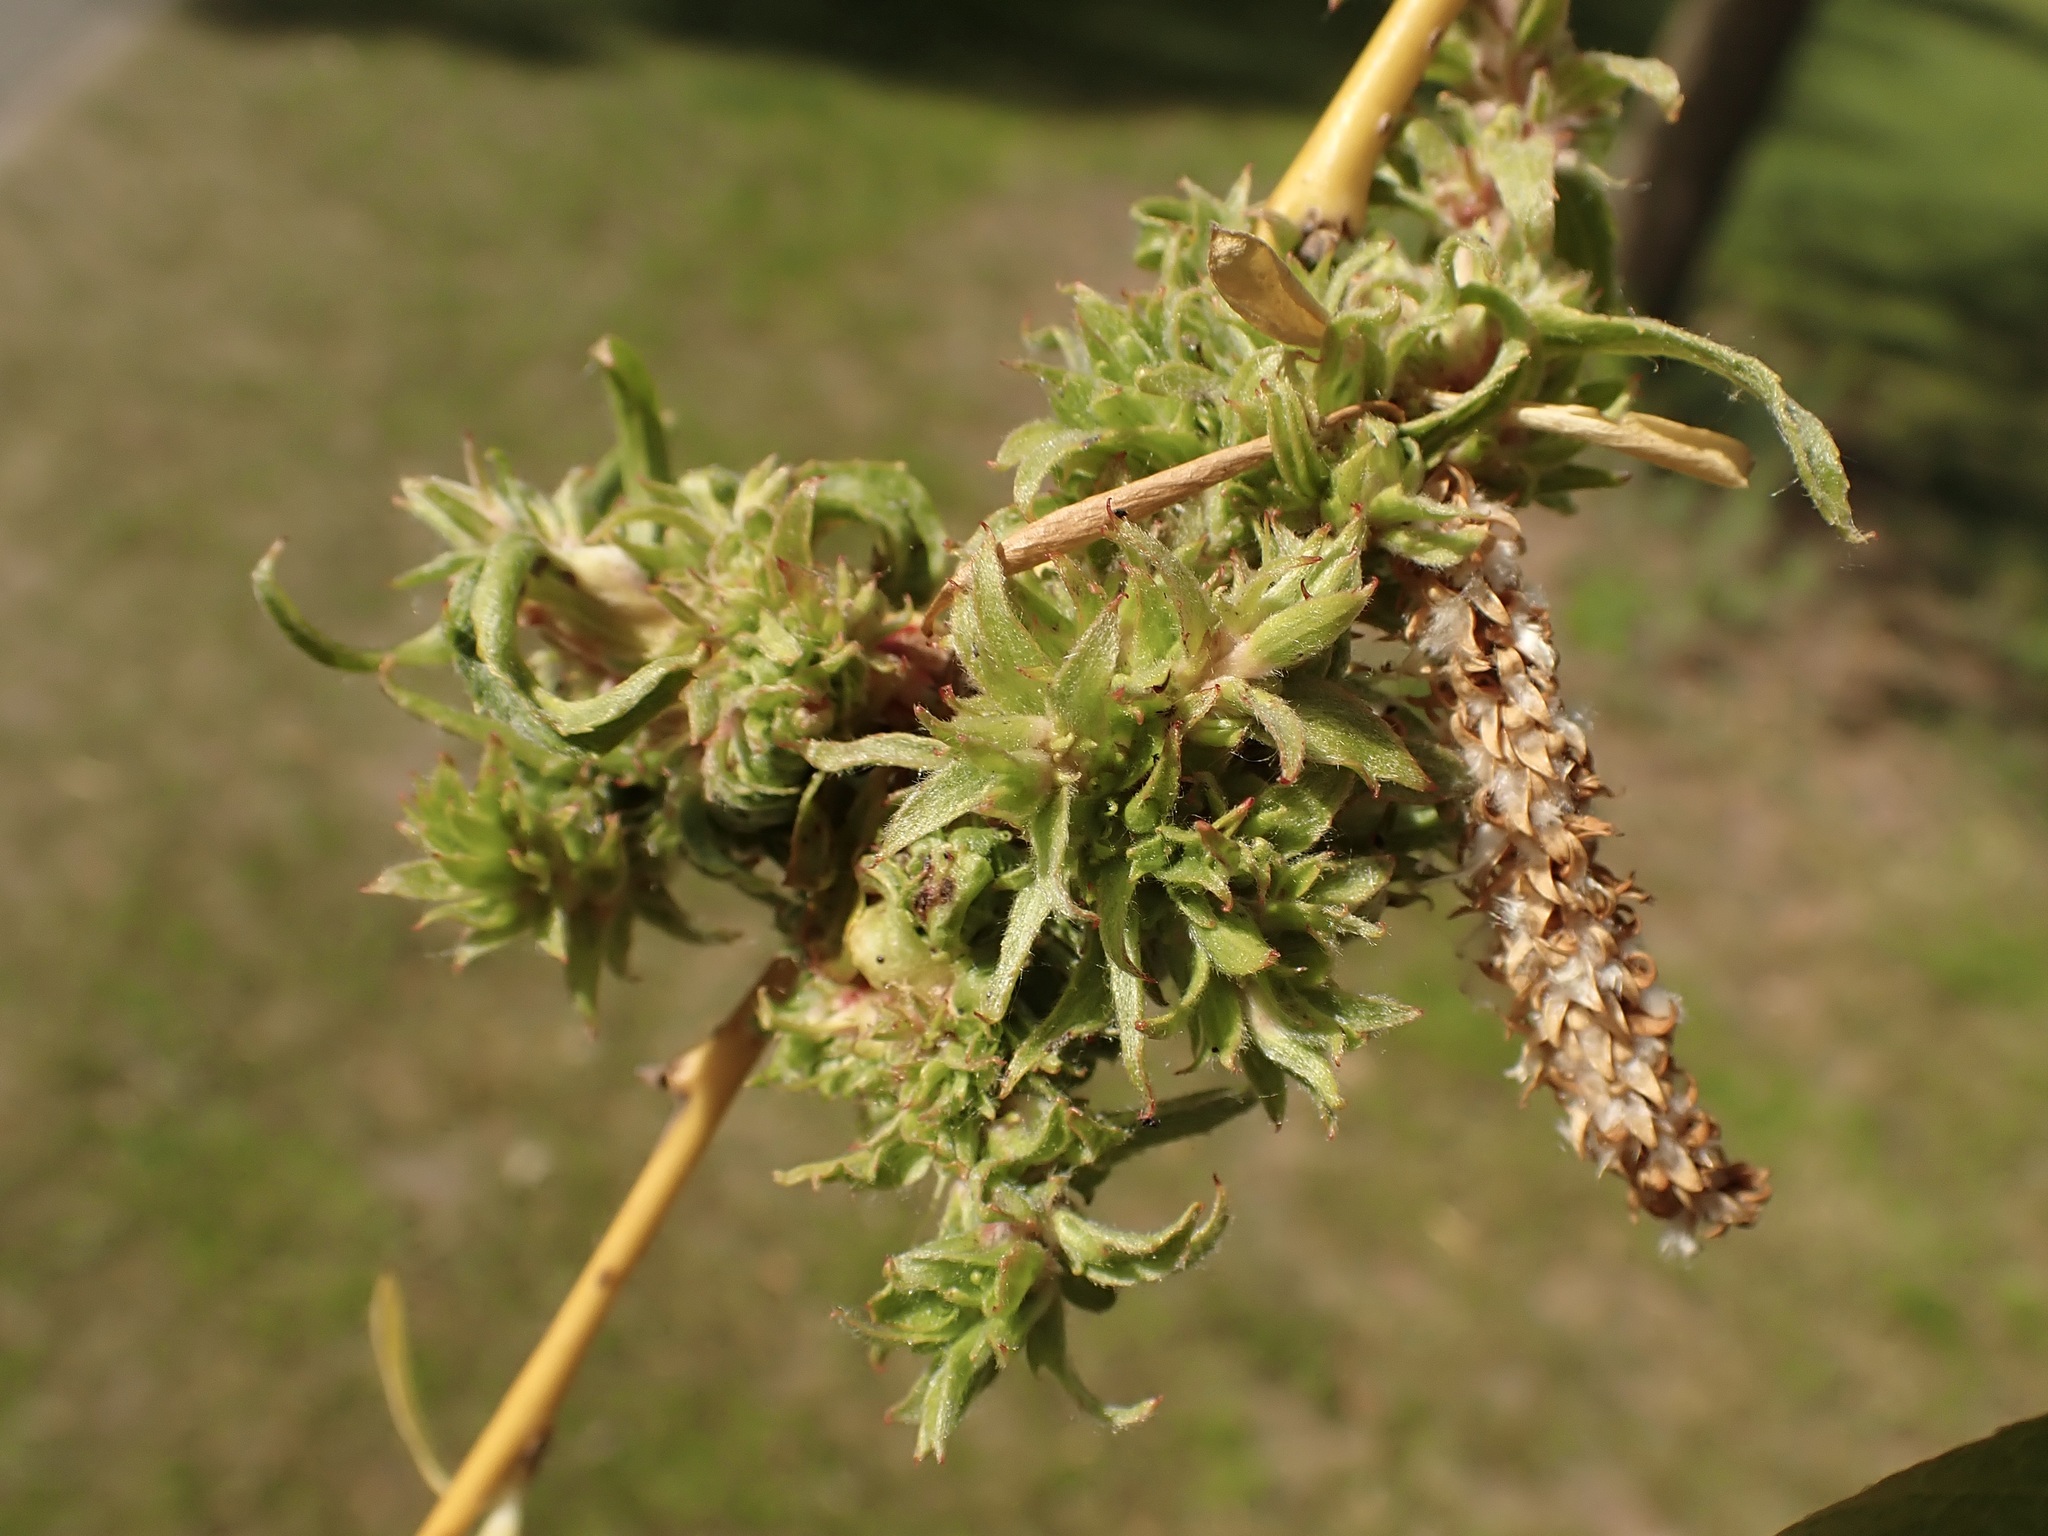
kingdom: Animalia
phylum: Arthropoda
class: Arachnida
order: Trombidiformes
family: Eriophyidae
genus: Stenacis
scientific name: Stenacis triradiatus
